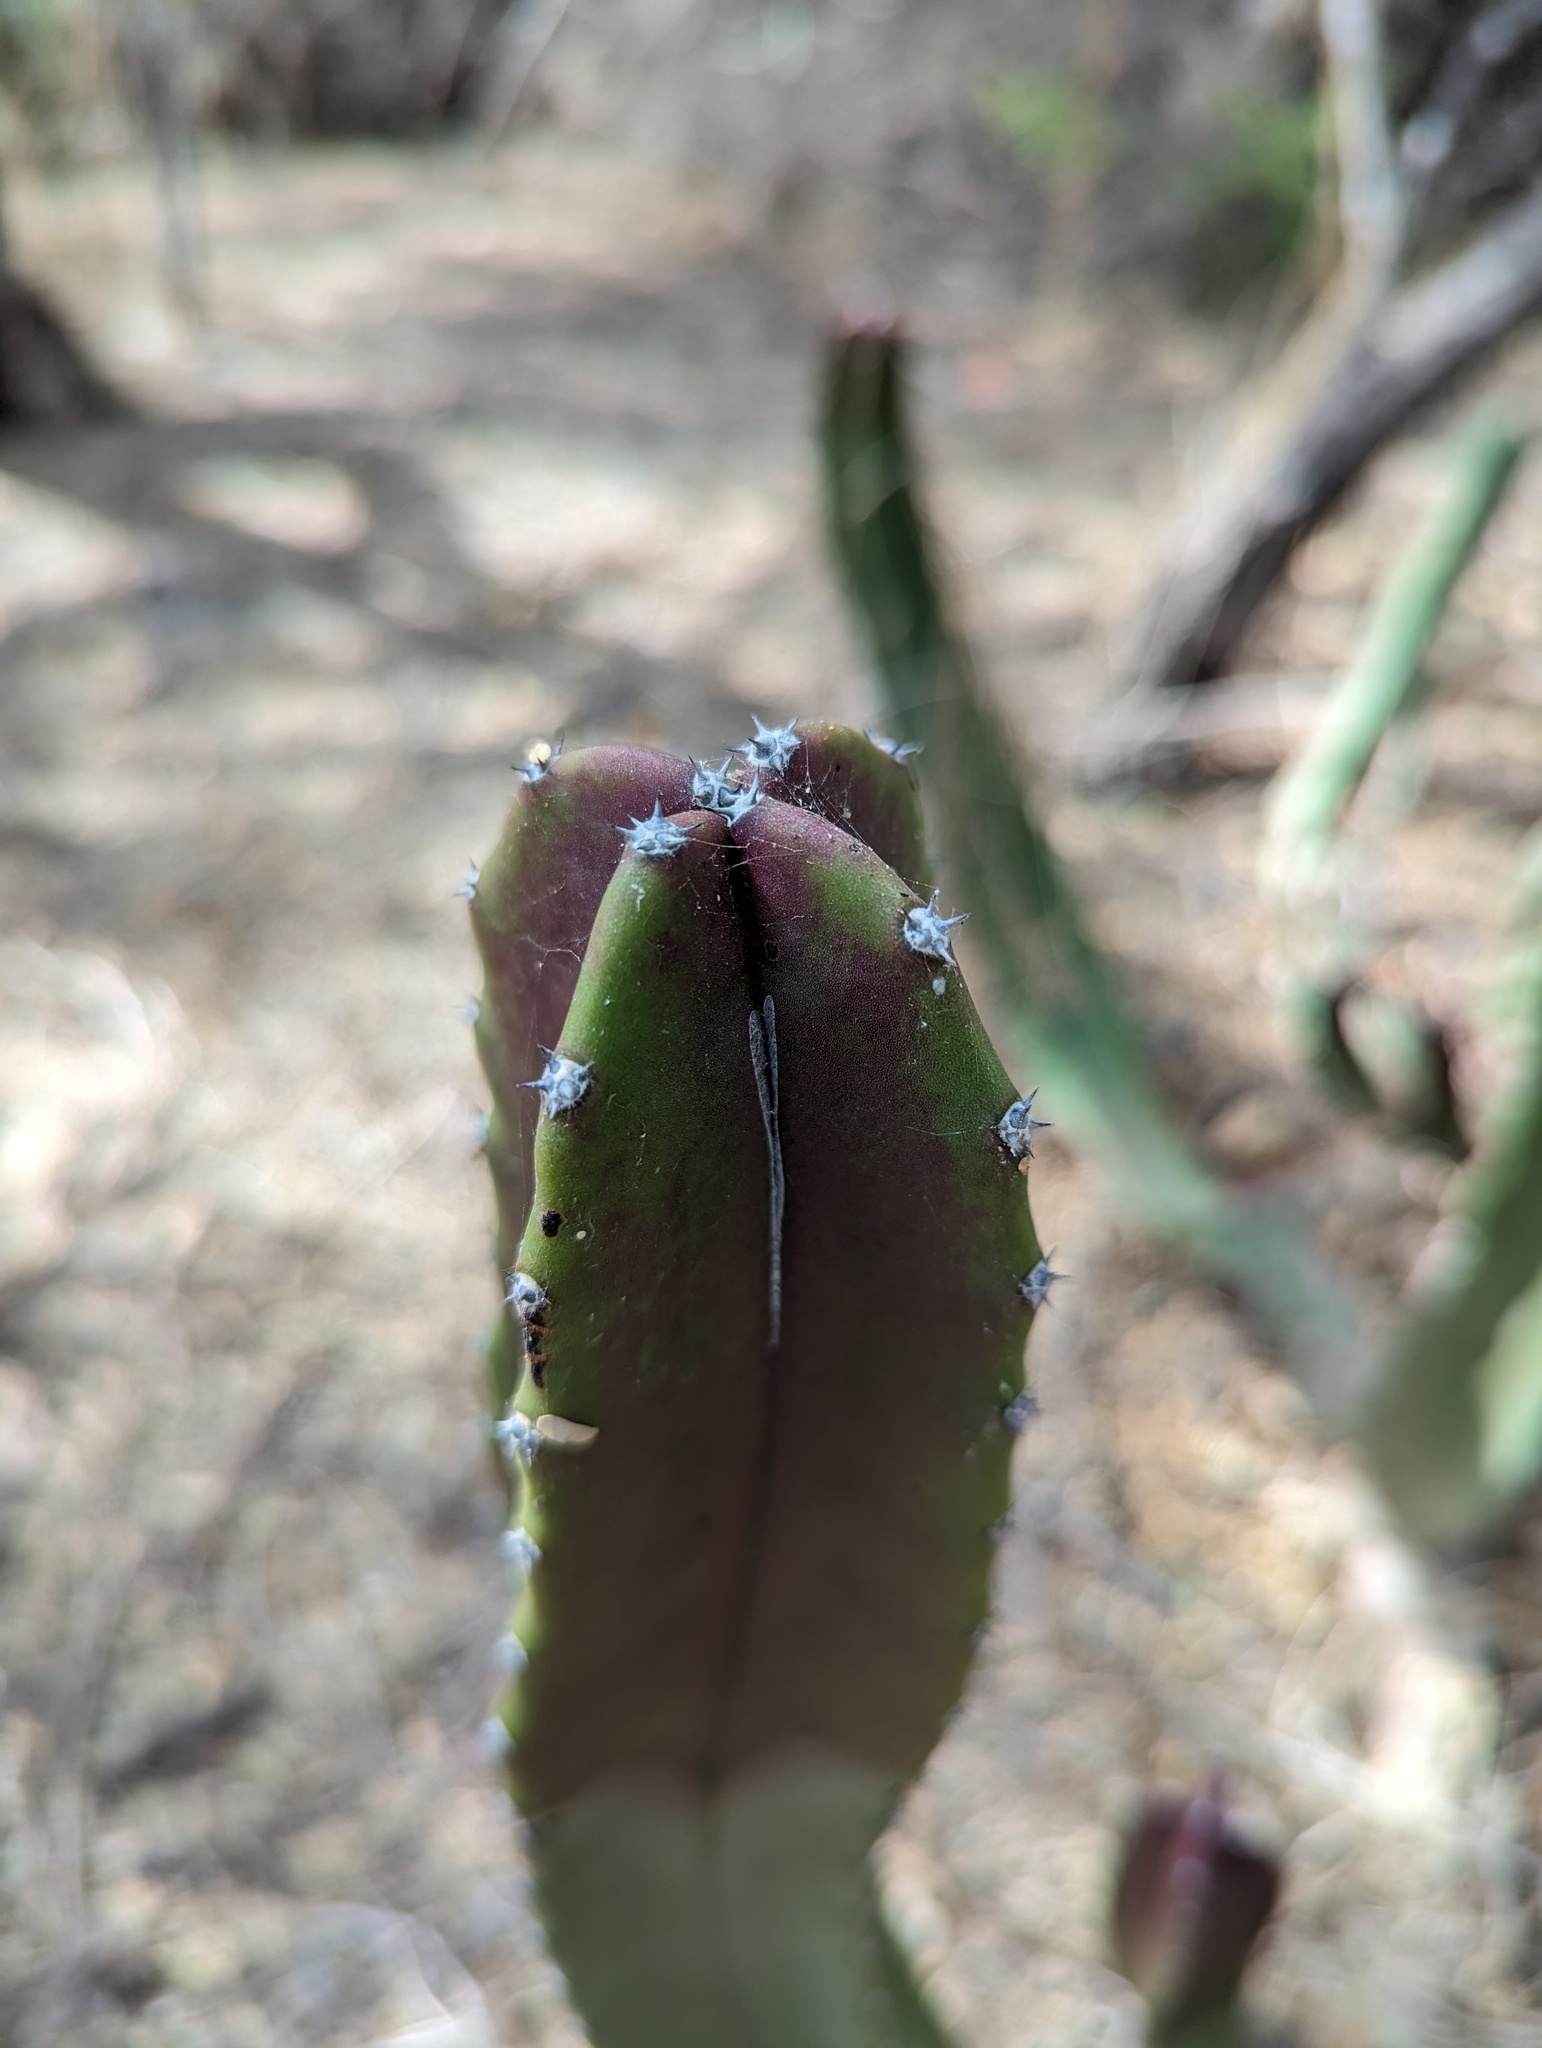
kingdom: Plantae
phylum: Tracheophyta
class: Magnoliopsida
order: Caryophyllales
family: Cactaceae
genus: Pachycereus
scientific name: Pachycereus schottii
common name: Senita cactus
